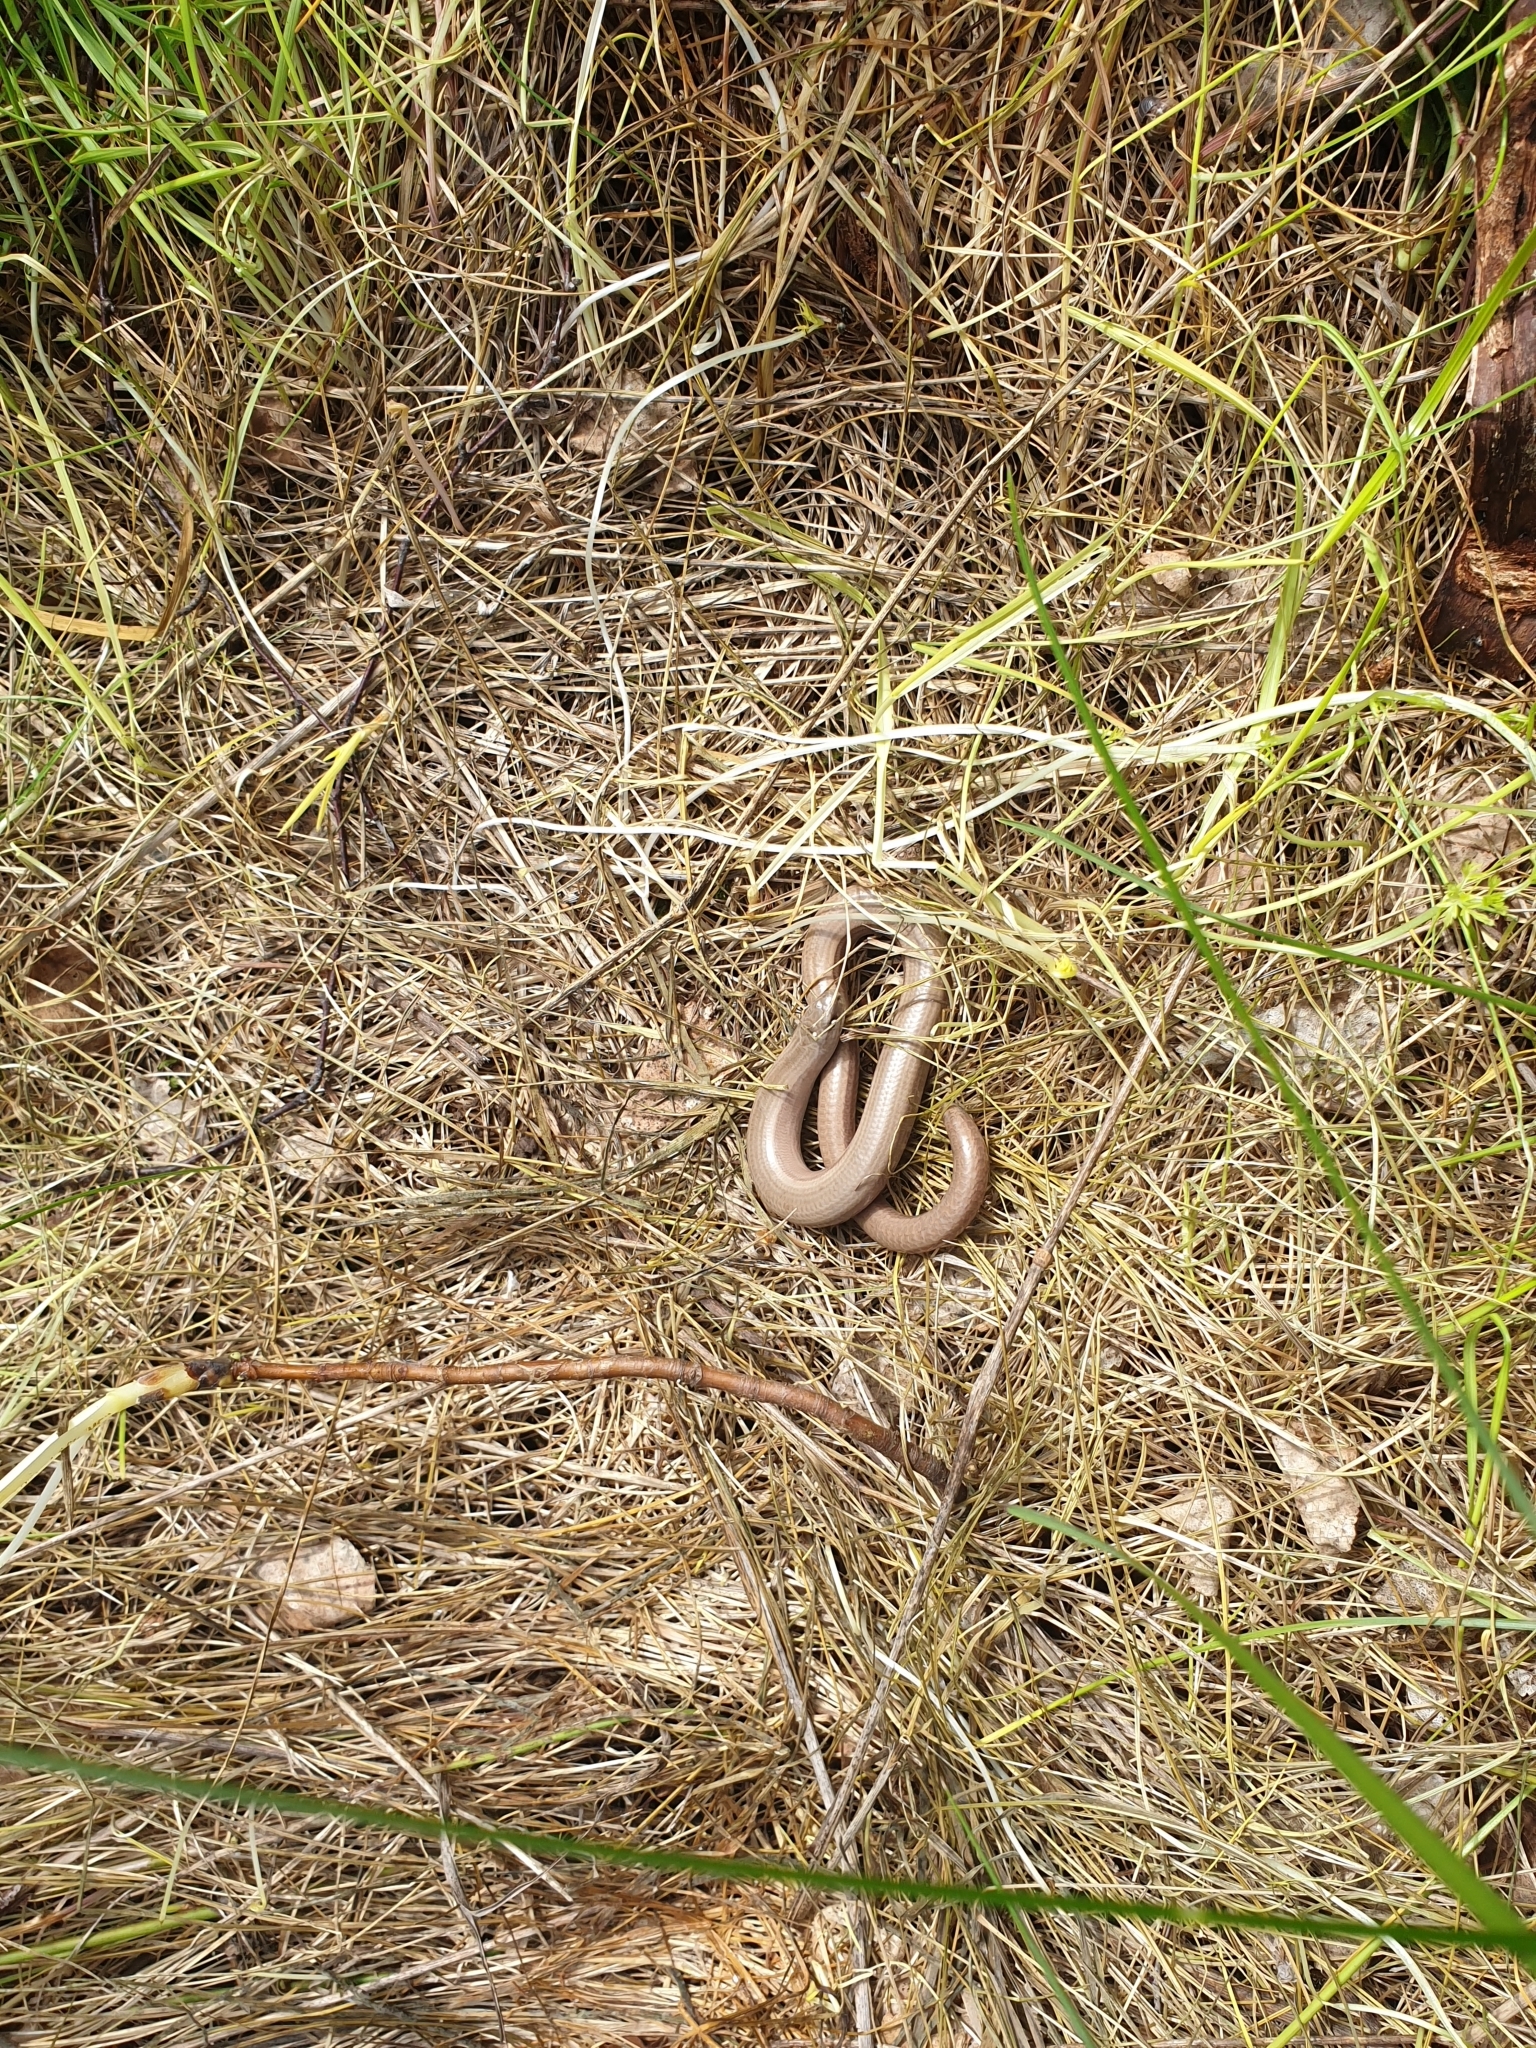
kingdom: Animalia
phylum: Chordata
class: Squamata
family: Anguidae
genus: Anguis
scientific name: Anguis fragilis
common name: Slow worm
